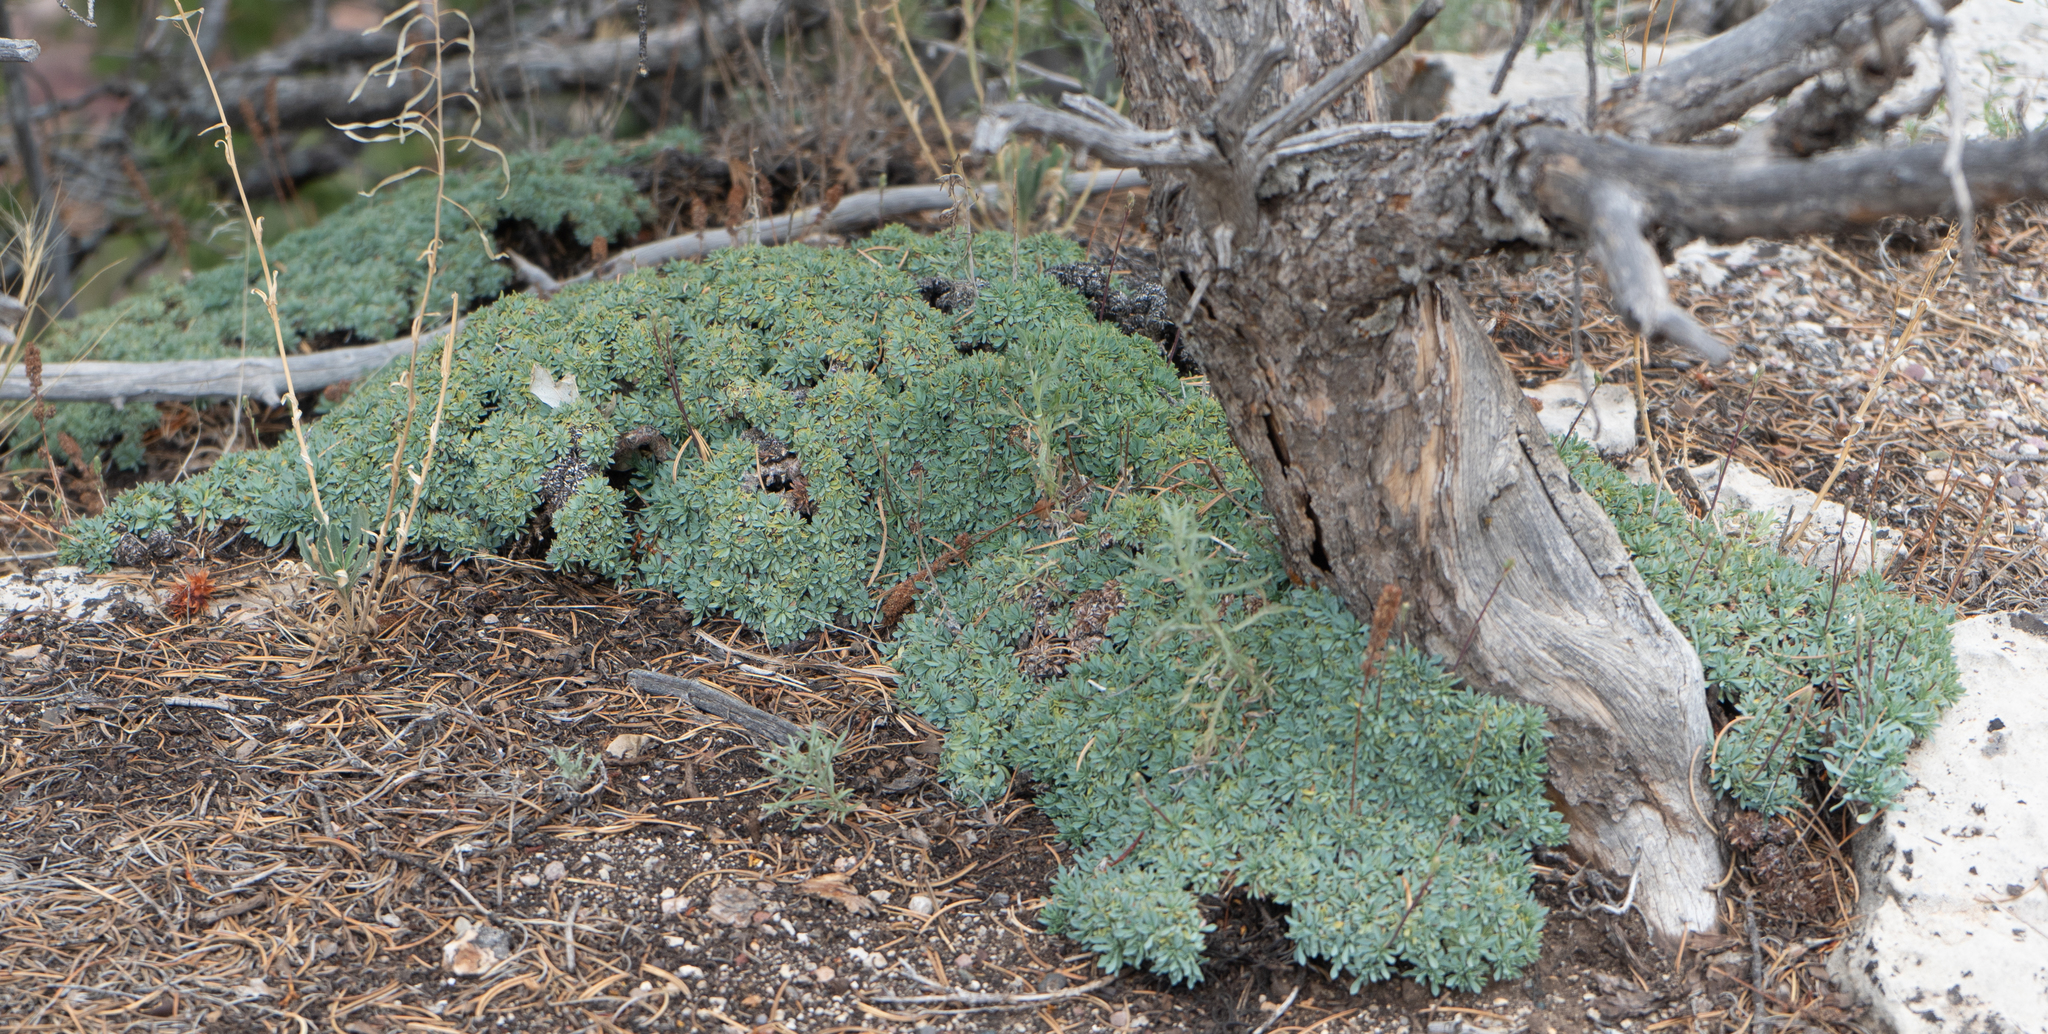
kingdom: Plantae
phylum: Tracheophyta
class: Magnoliopsida
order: Rosales
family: Rosaceae
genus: Petrophytum
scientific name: Petrophytum caespitosum
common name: Mat rockspirea
